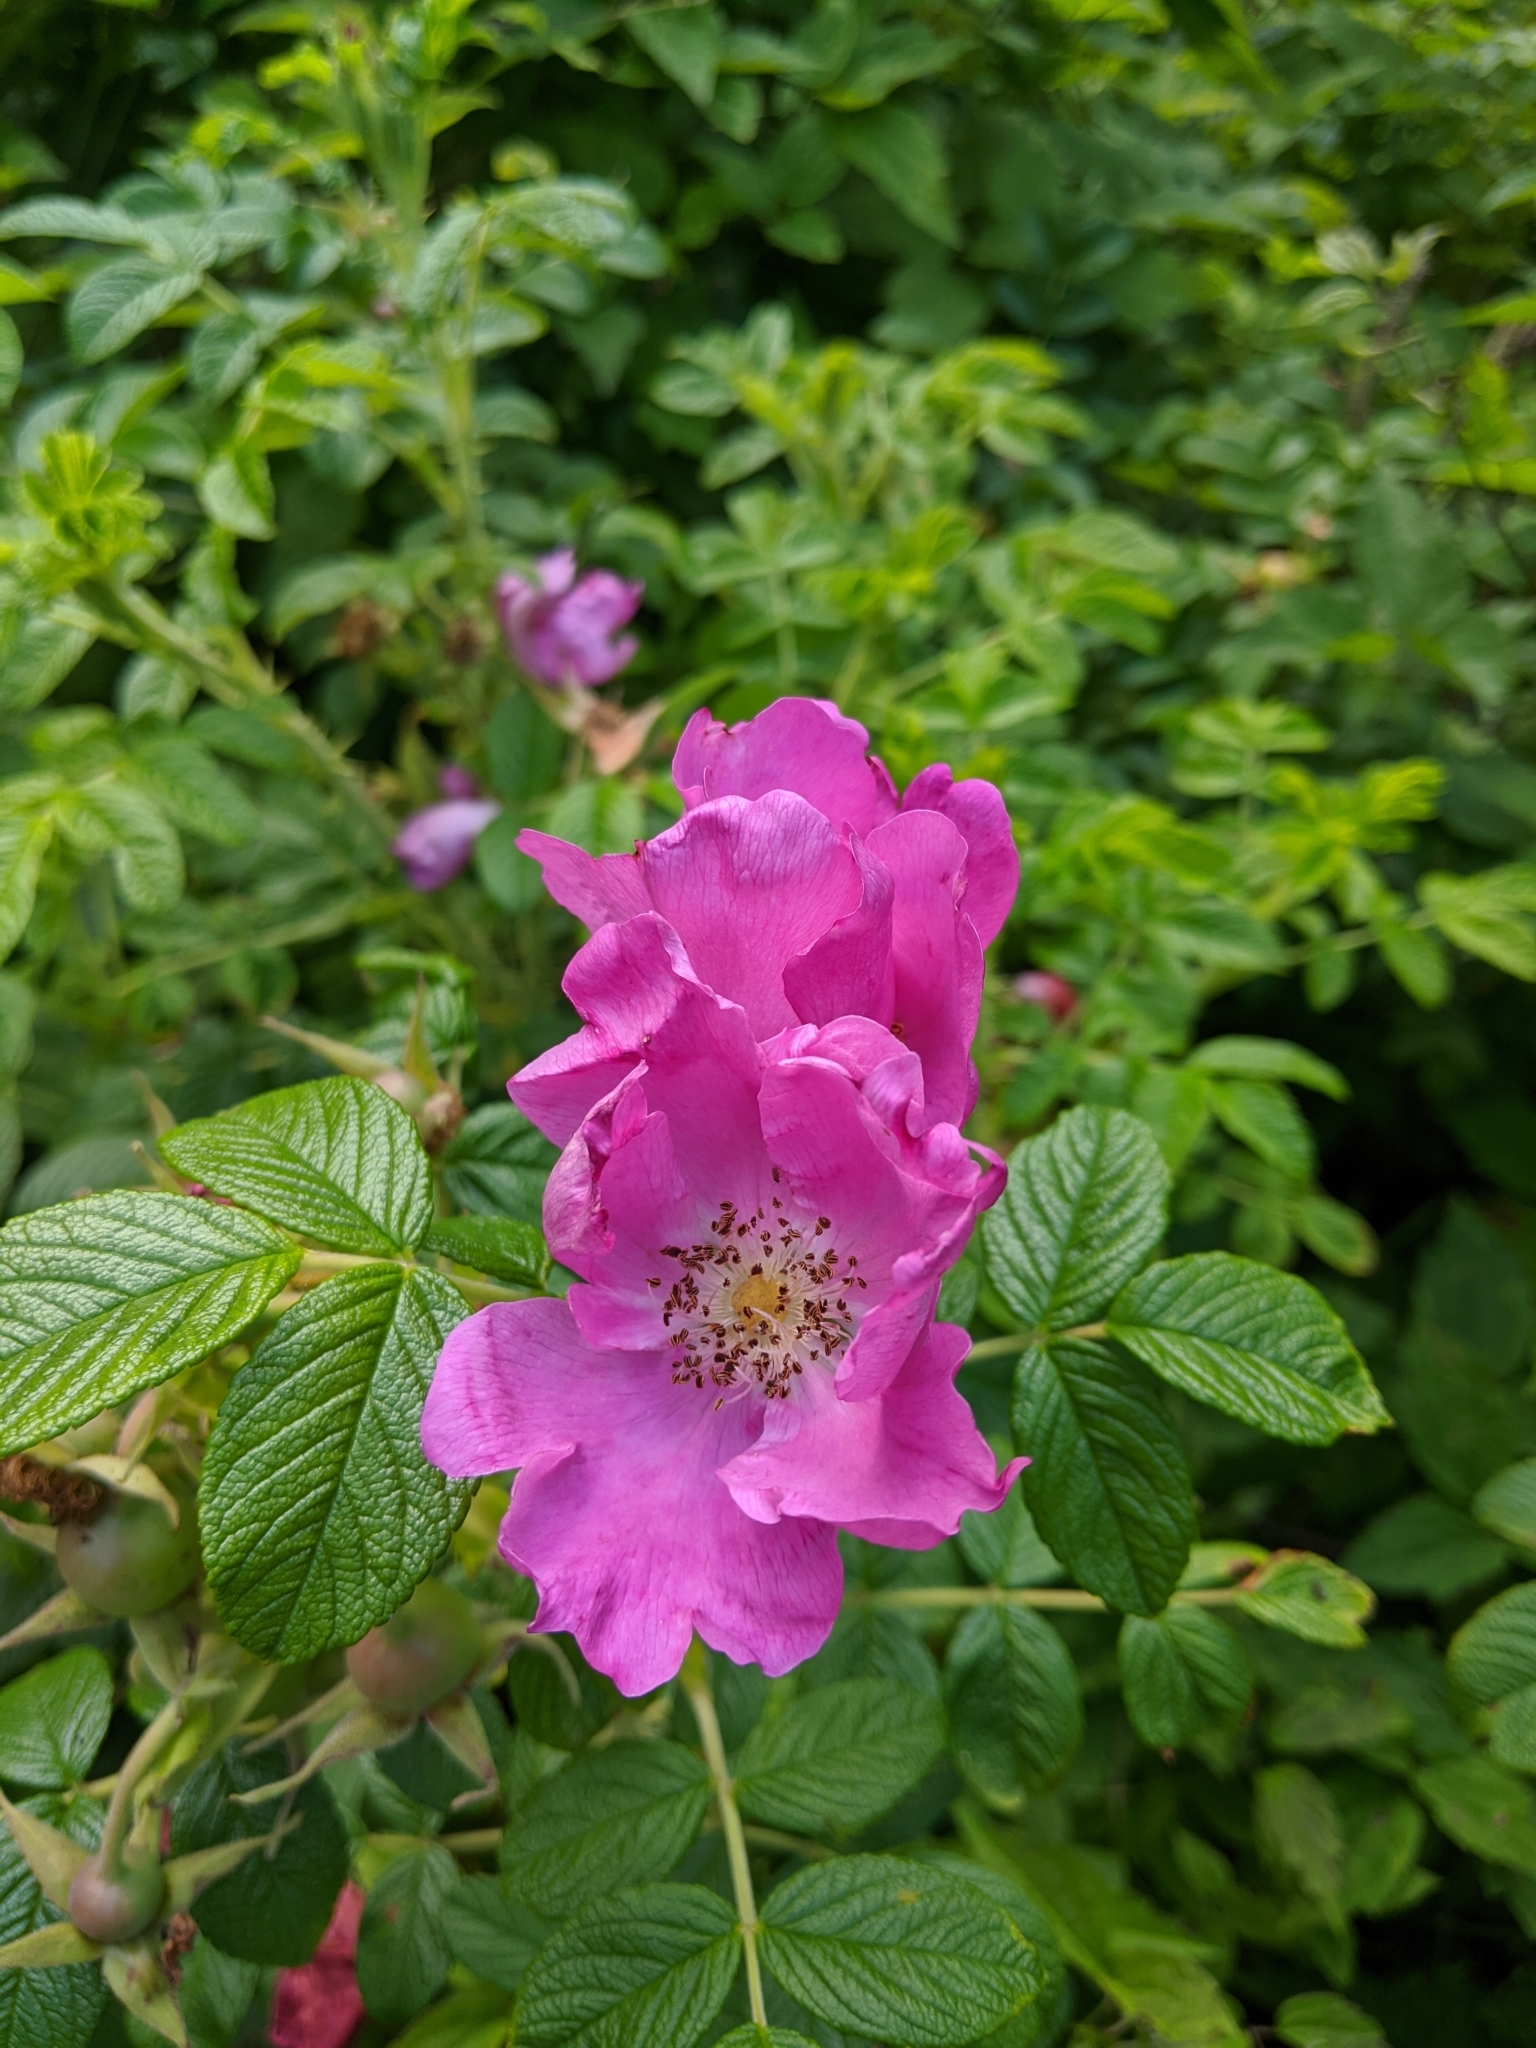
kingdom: Plantae
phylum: Tracheophyta
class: Magnoliopsida
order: Rosales
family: Rosaceae
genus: Rosa
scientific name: Rosa rugosa
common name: Japanese rose
